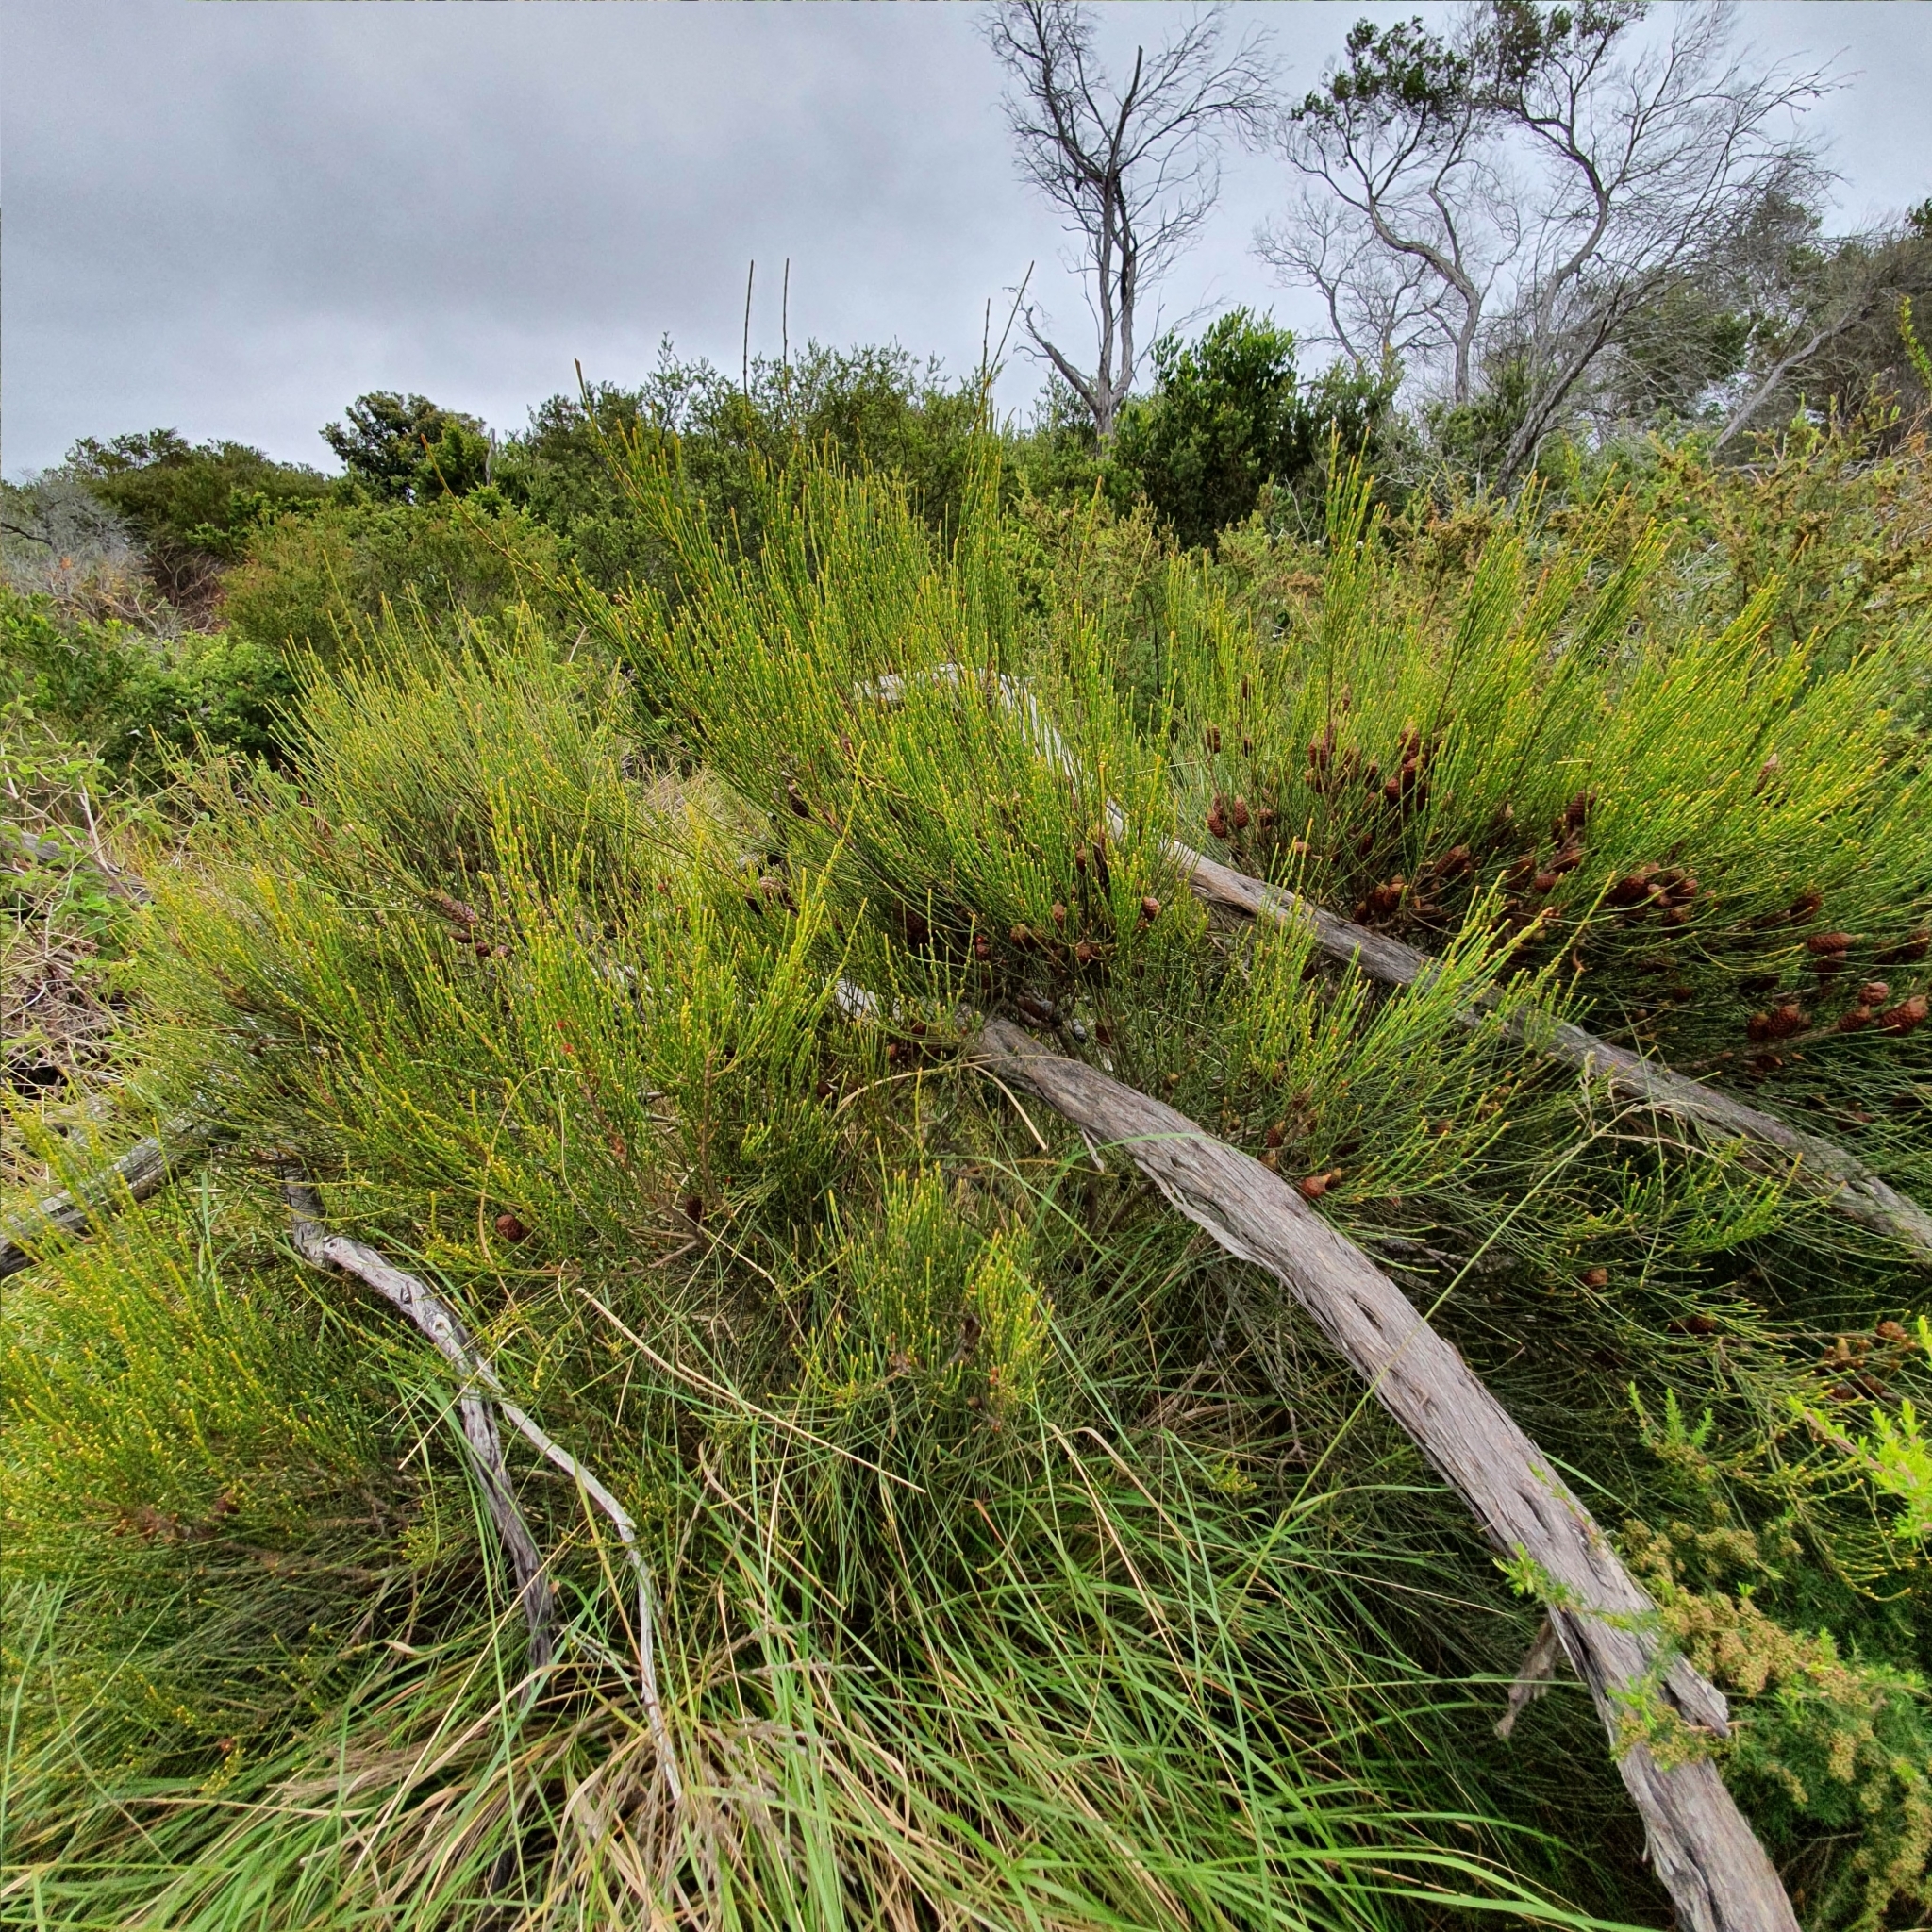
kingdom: Plantae
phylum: Tracheophyta
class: Magnoliopsida
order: Fagales
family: Casuarinaceae
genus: Allocasuarina
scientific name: Allocasuarina distyla
